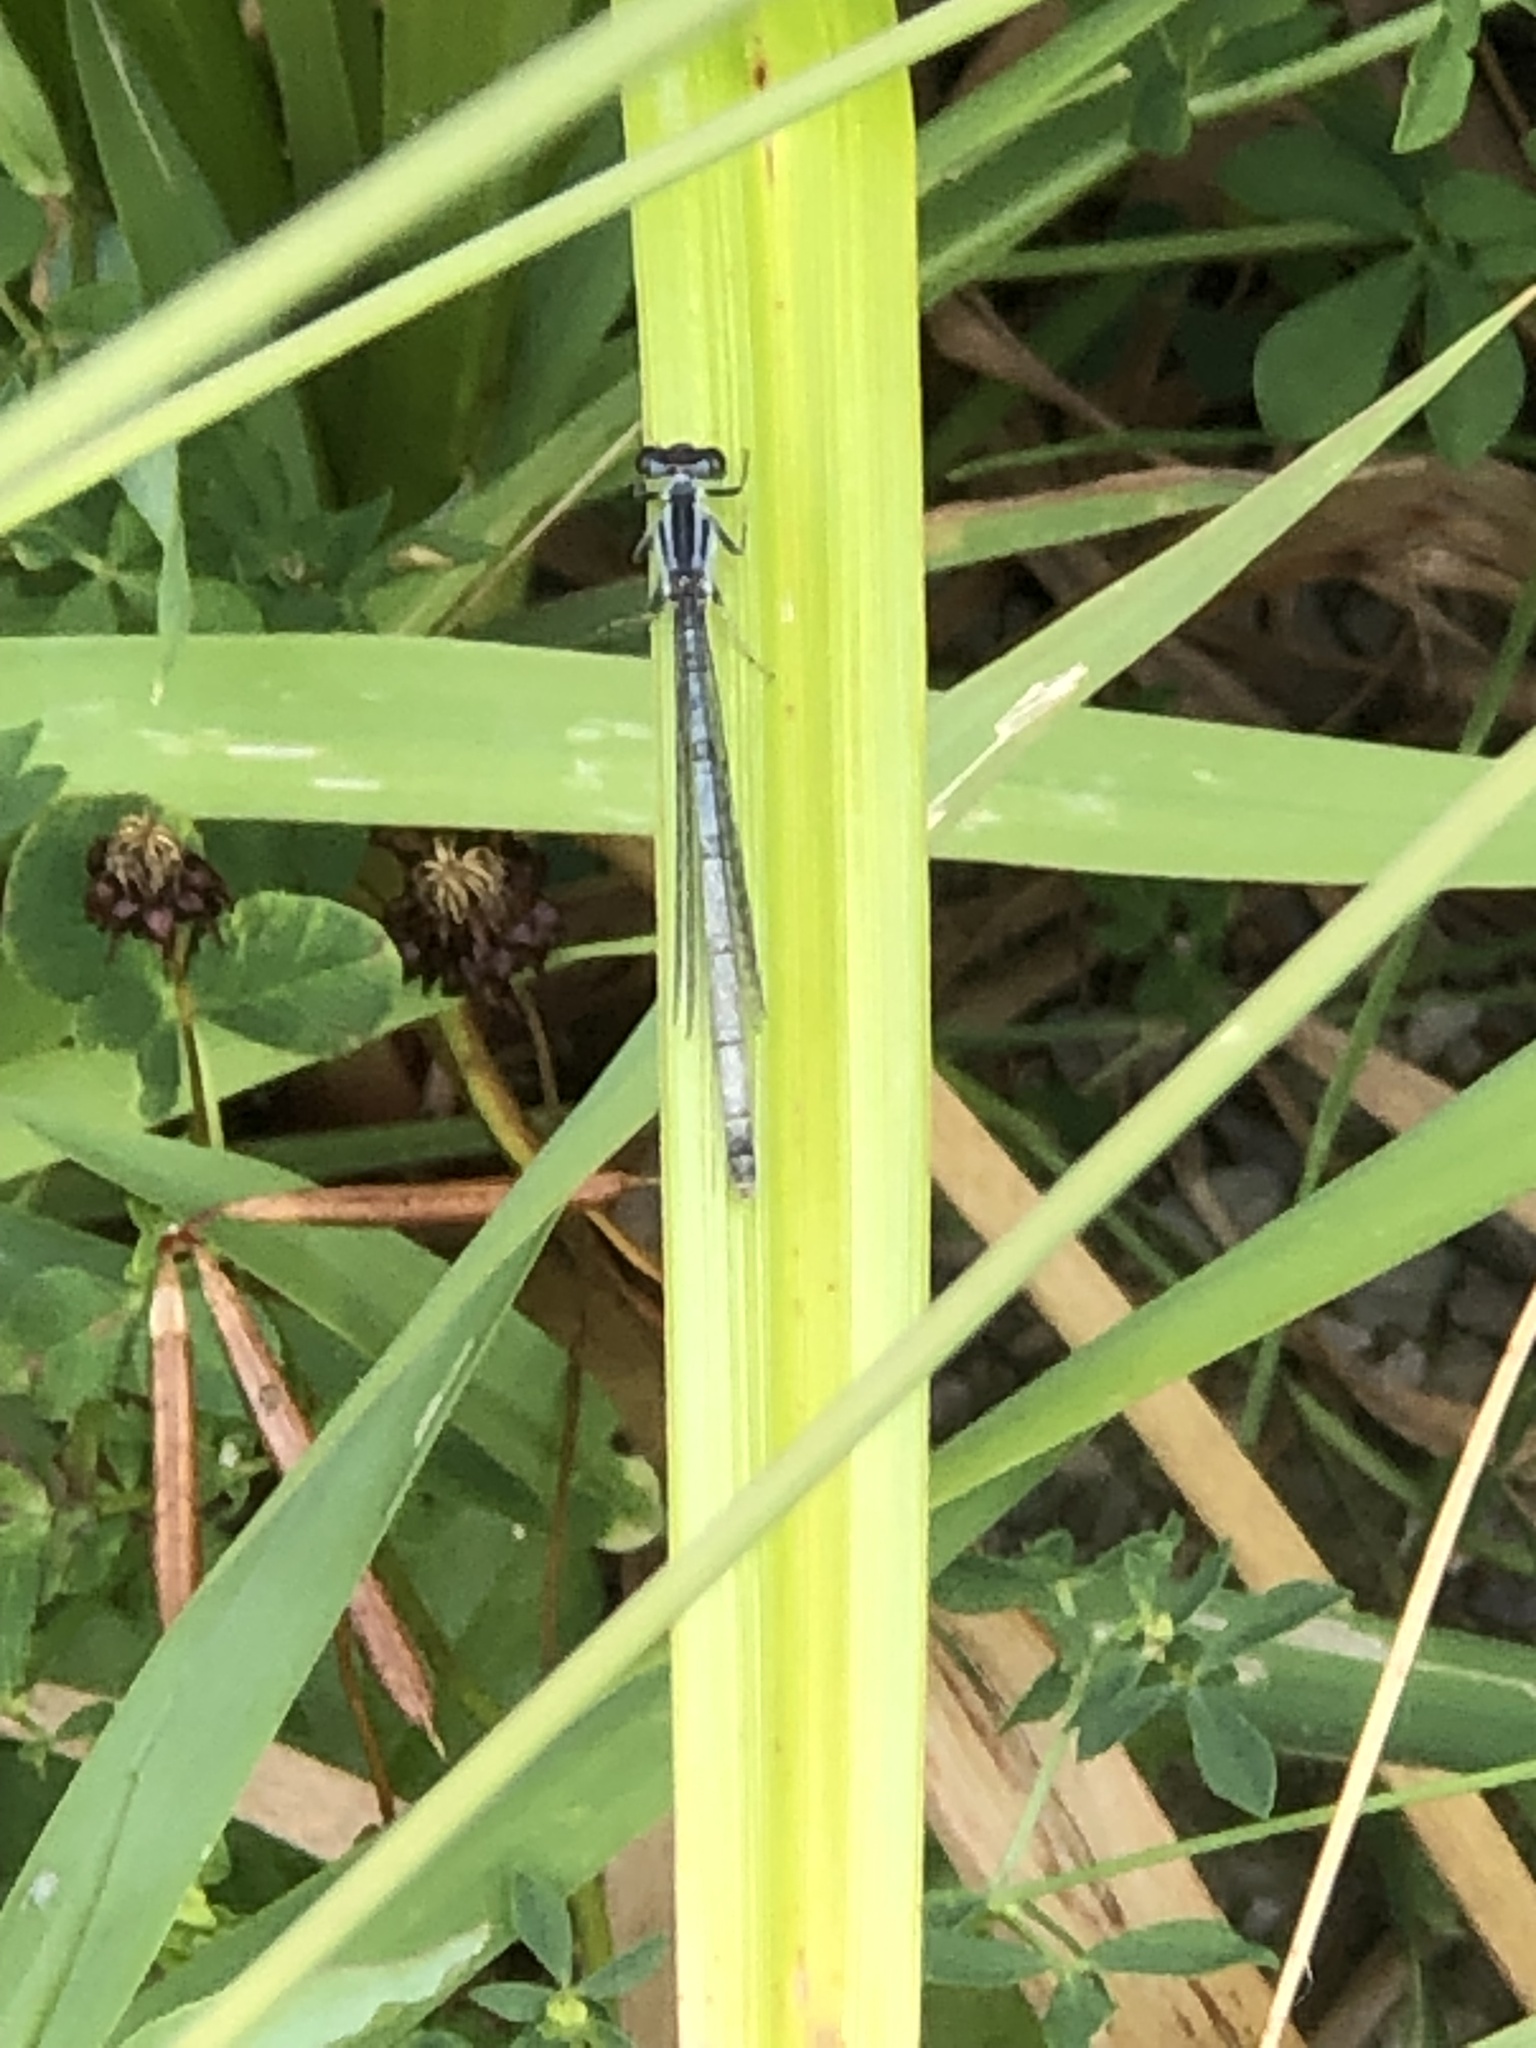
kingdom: Animalia
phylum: Arthropoda
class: Insecta
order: Odonata
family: Coenagrionidae
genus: Ischnura
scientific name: Ischnura verticalis
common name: Eastern forktail
